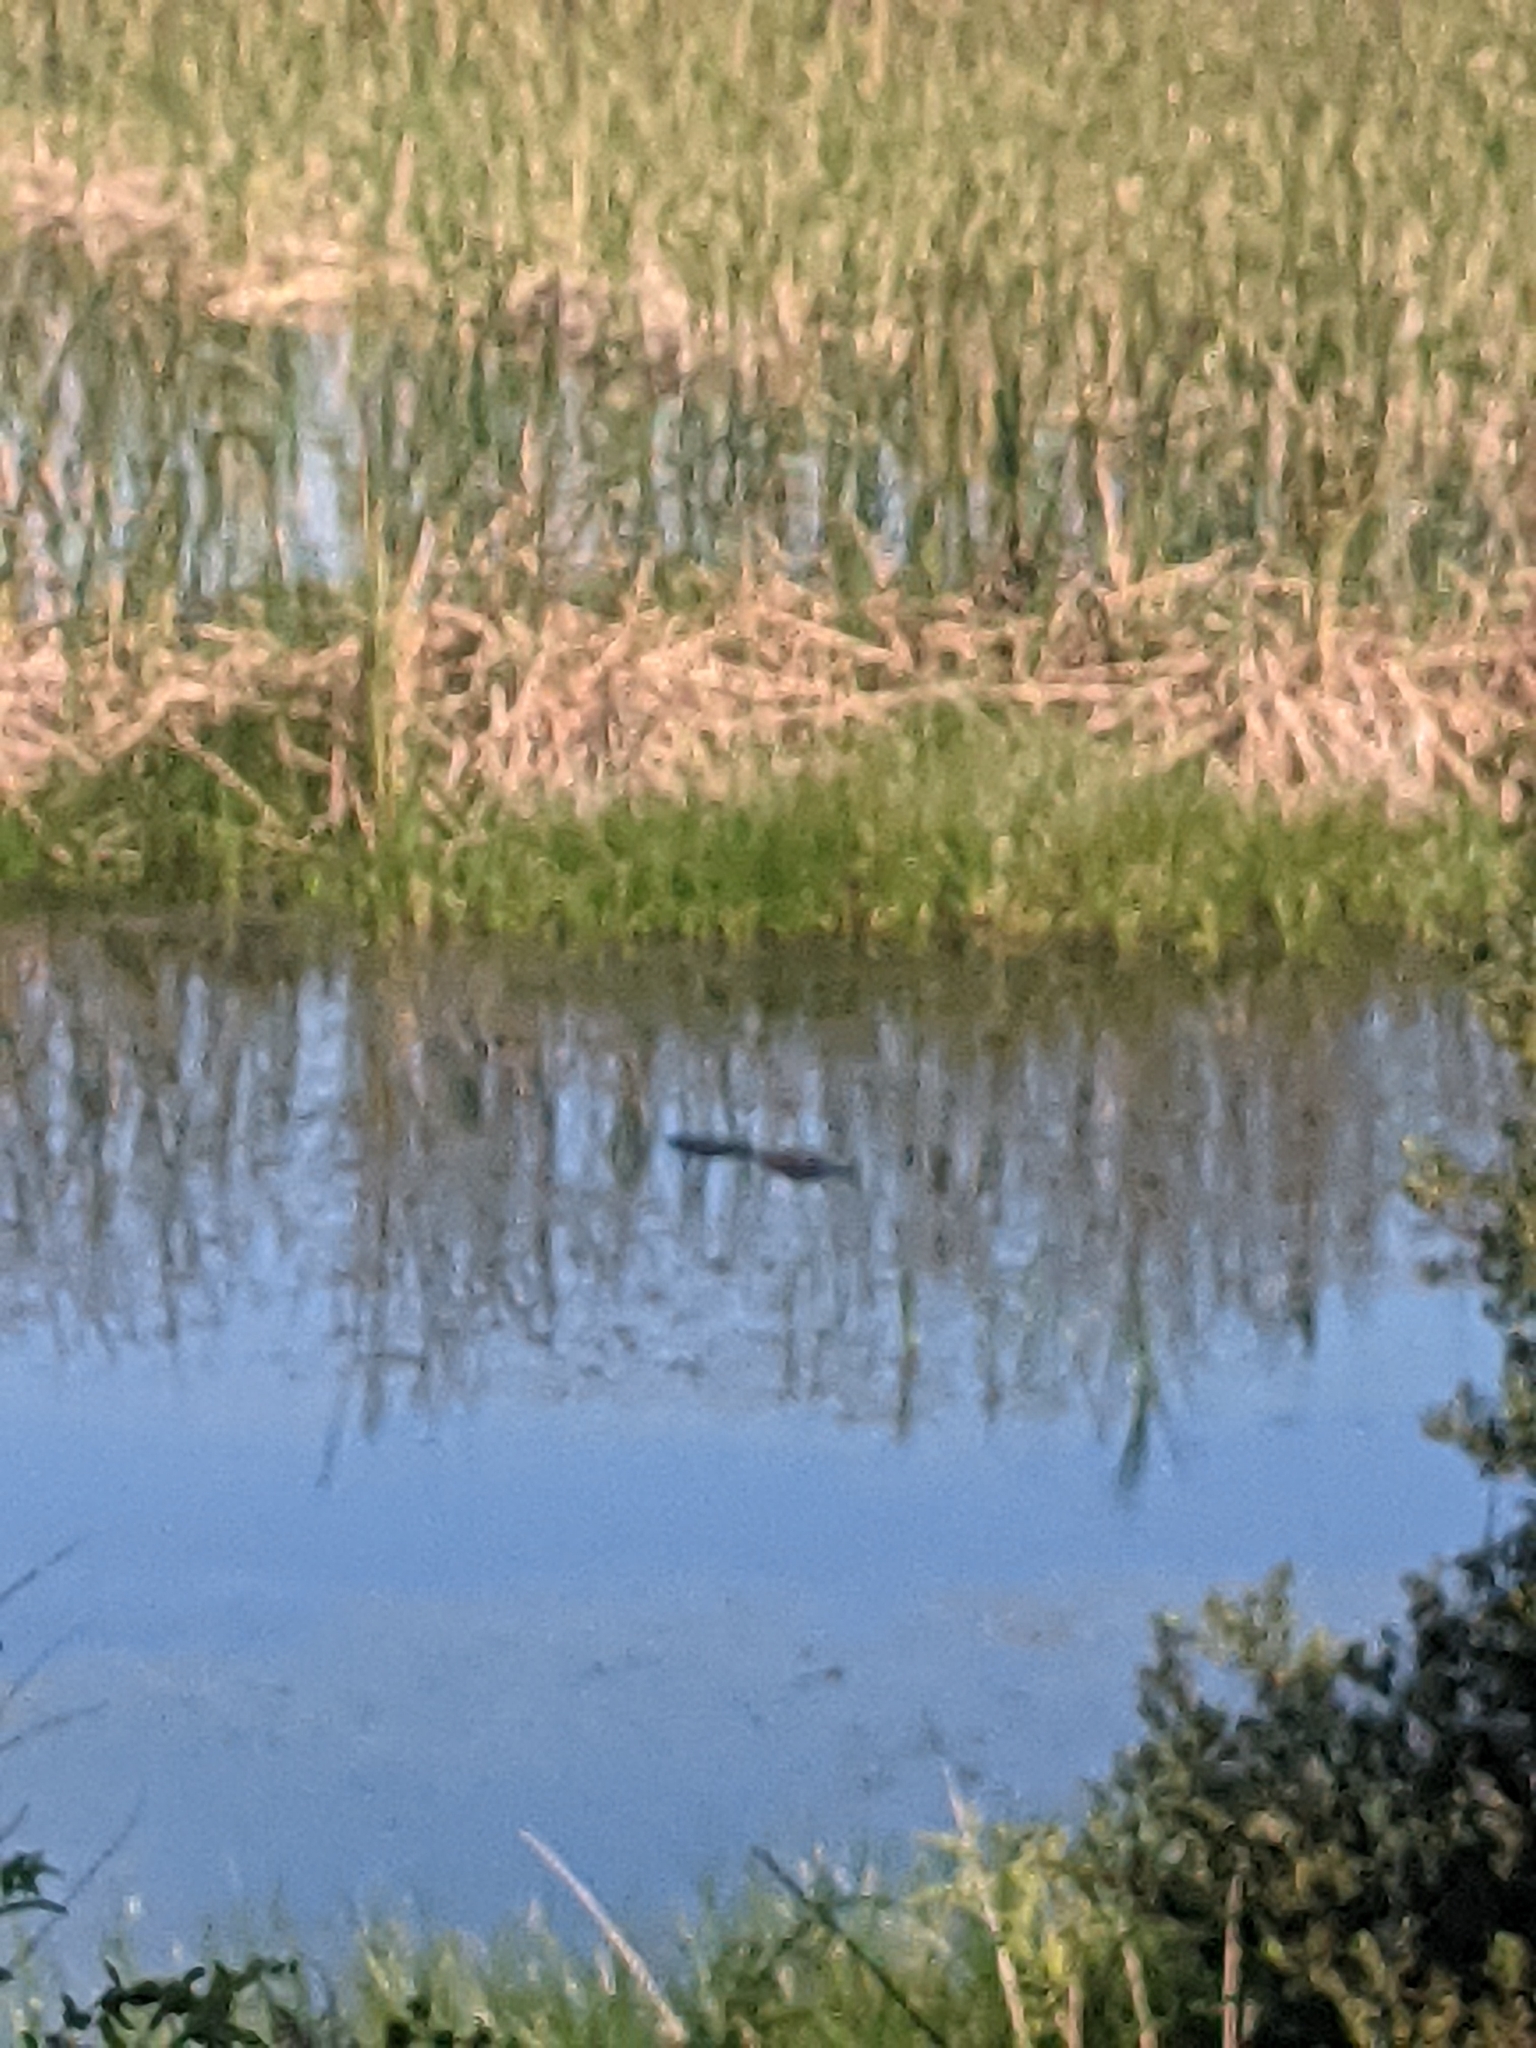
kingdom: Animalia
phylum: Chordata
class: Crocodylia
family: Alligatoridae
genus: Alligator
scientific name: Alligator mississippiensis
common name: American alligator
